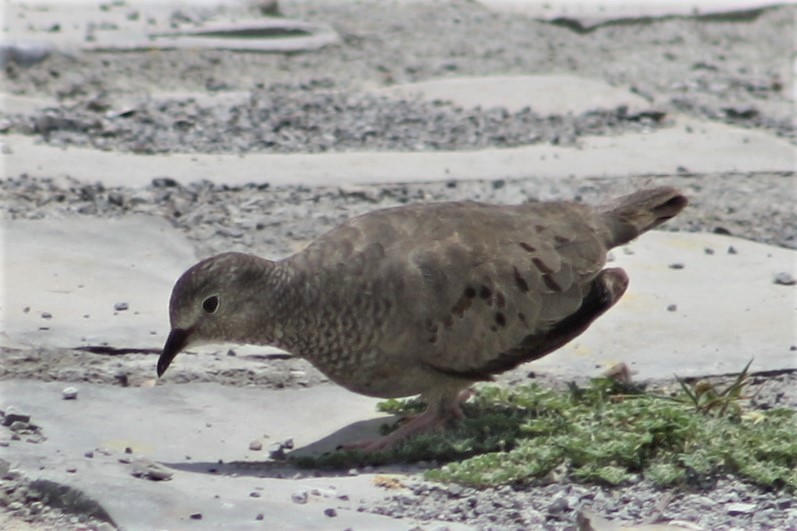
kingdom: Animalia
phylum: Chordata
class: Aves
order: Columbiformes
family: Columbidae
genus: Columbina
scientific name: Columbina passerina
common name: Common ground-dove
